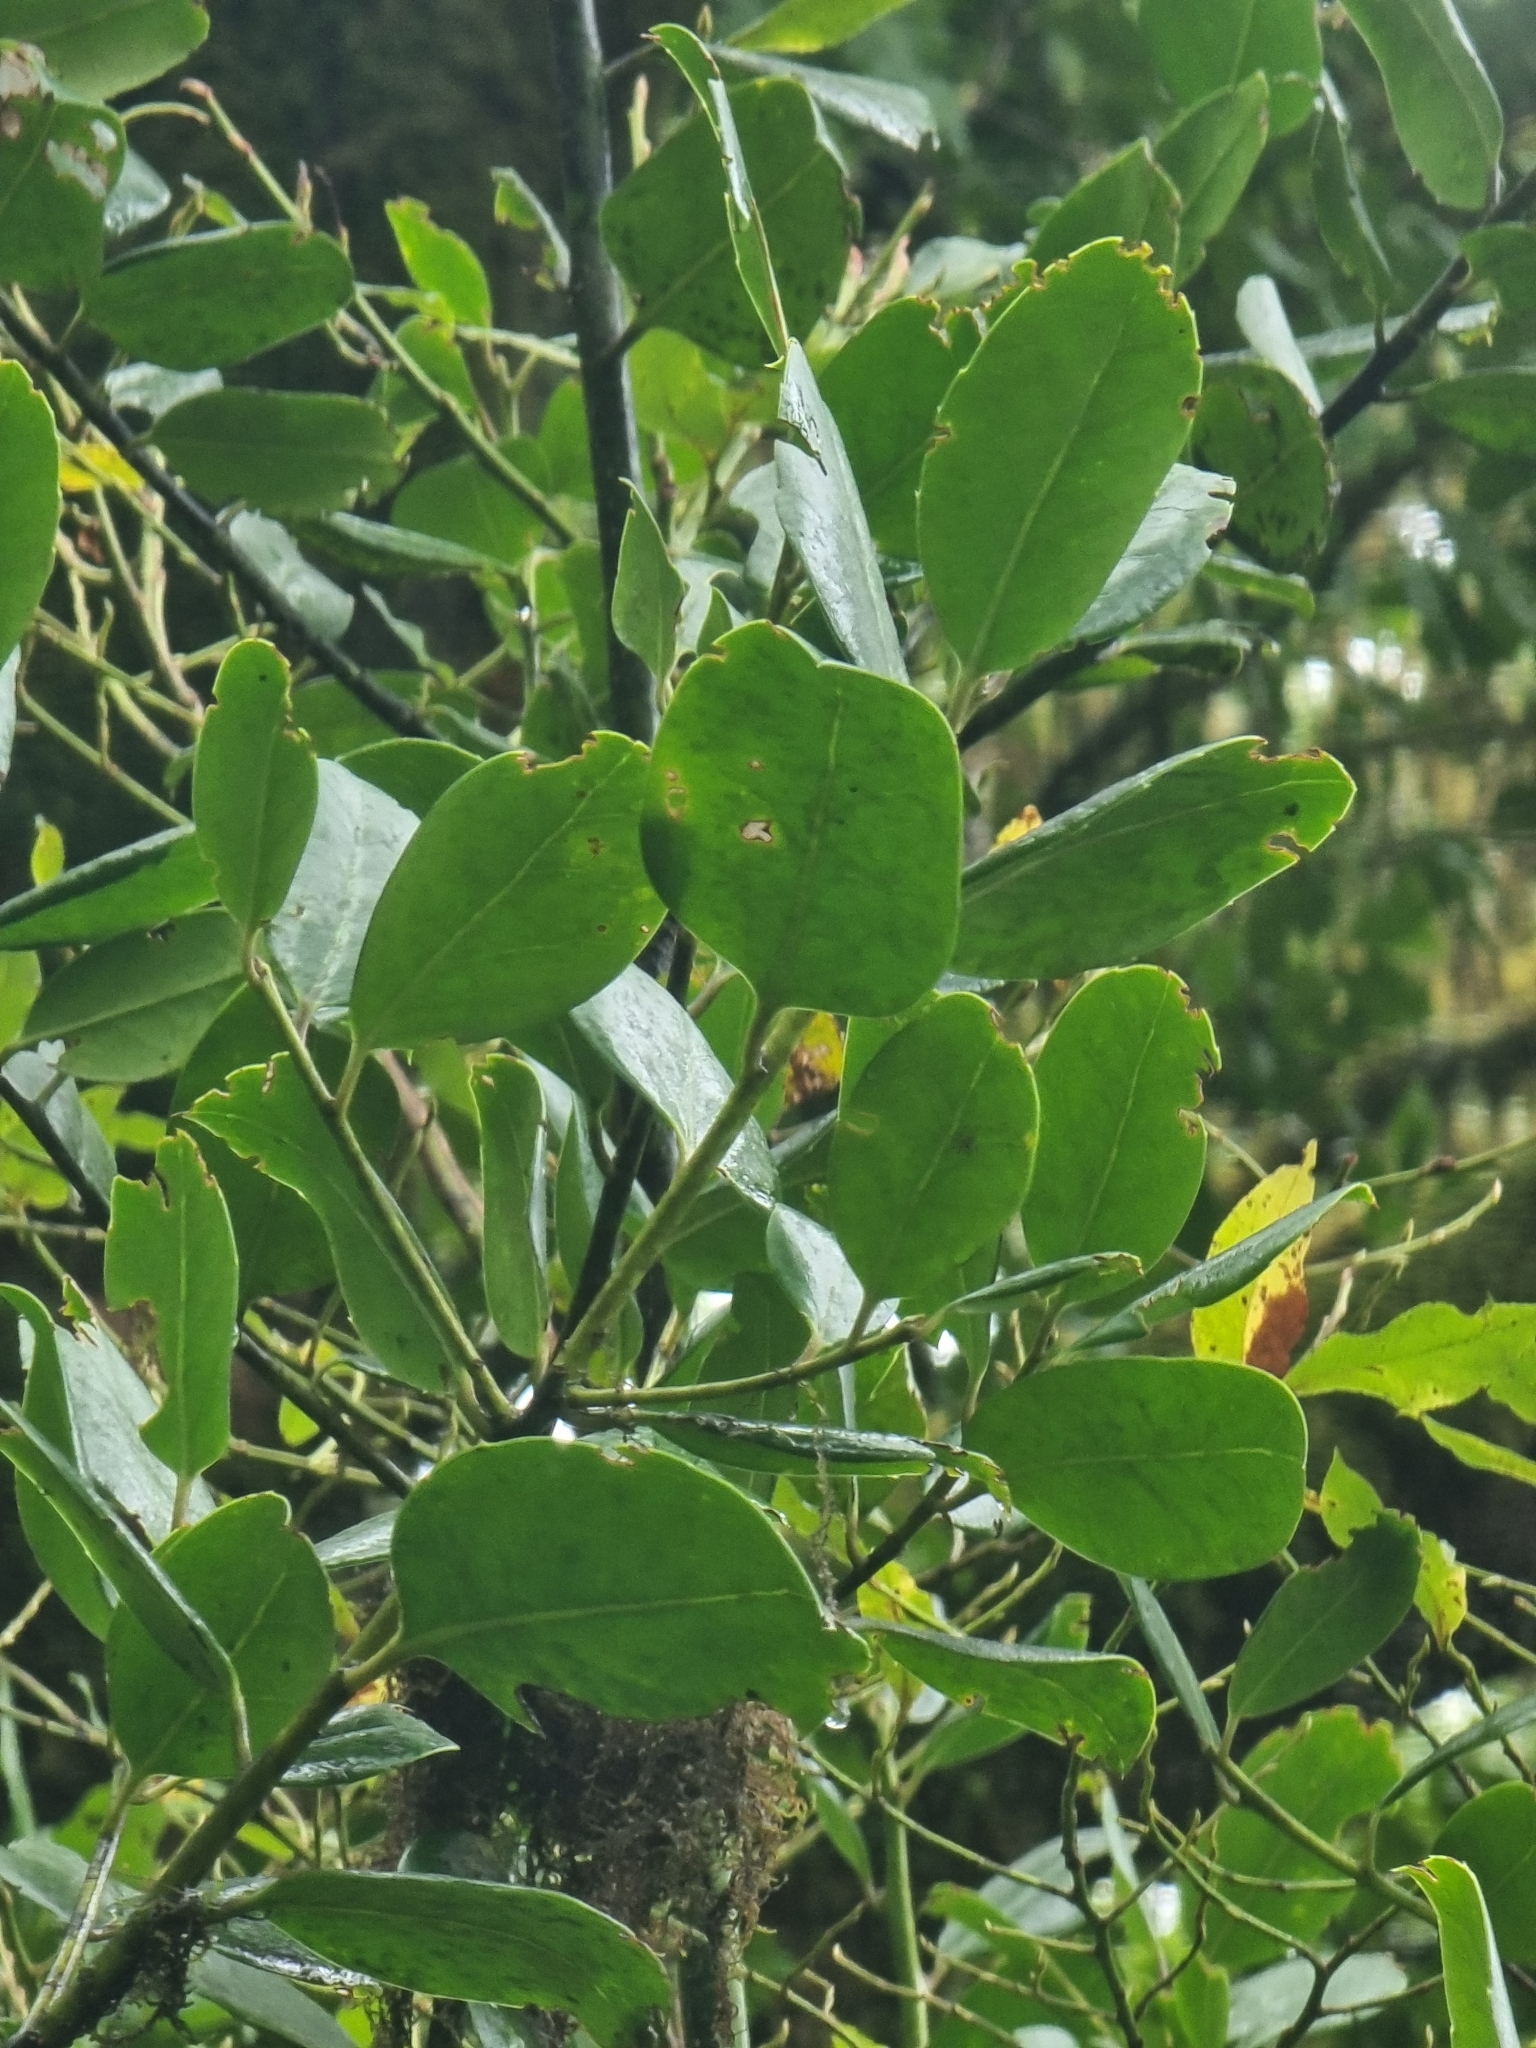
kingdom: Plantae
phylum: Tracheophyta
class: Magnoliopsida
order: Aquifoliales
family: Aquifoliaceae
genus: Ilex
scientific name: Ilex perado
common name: Madeira holly
